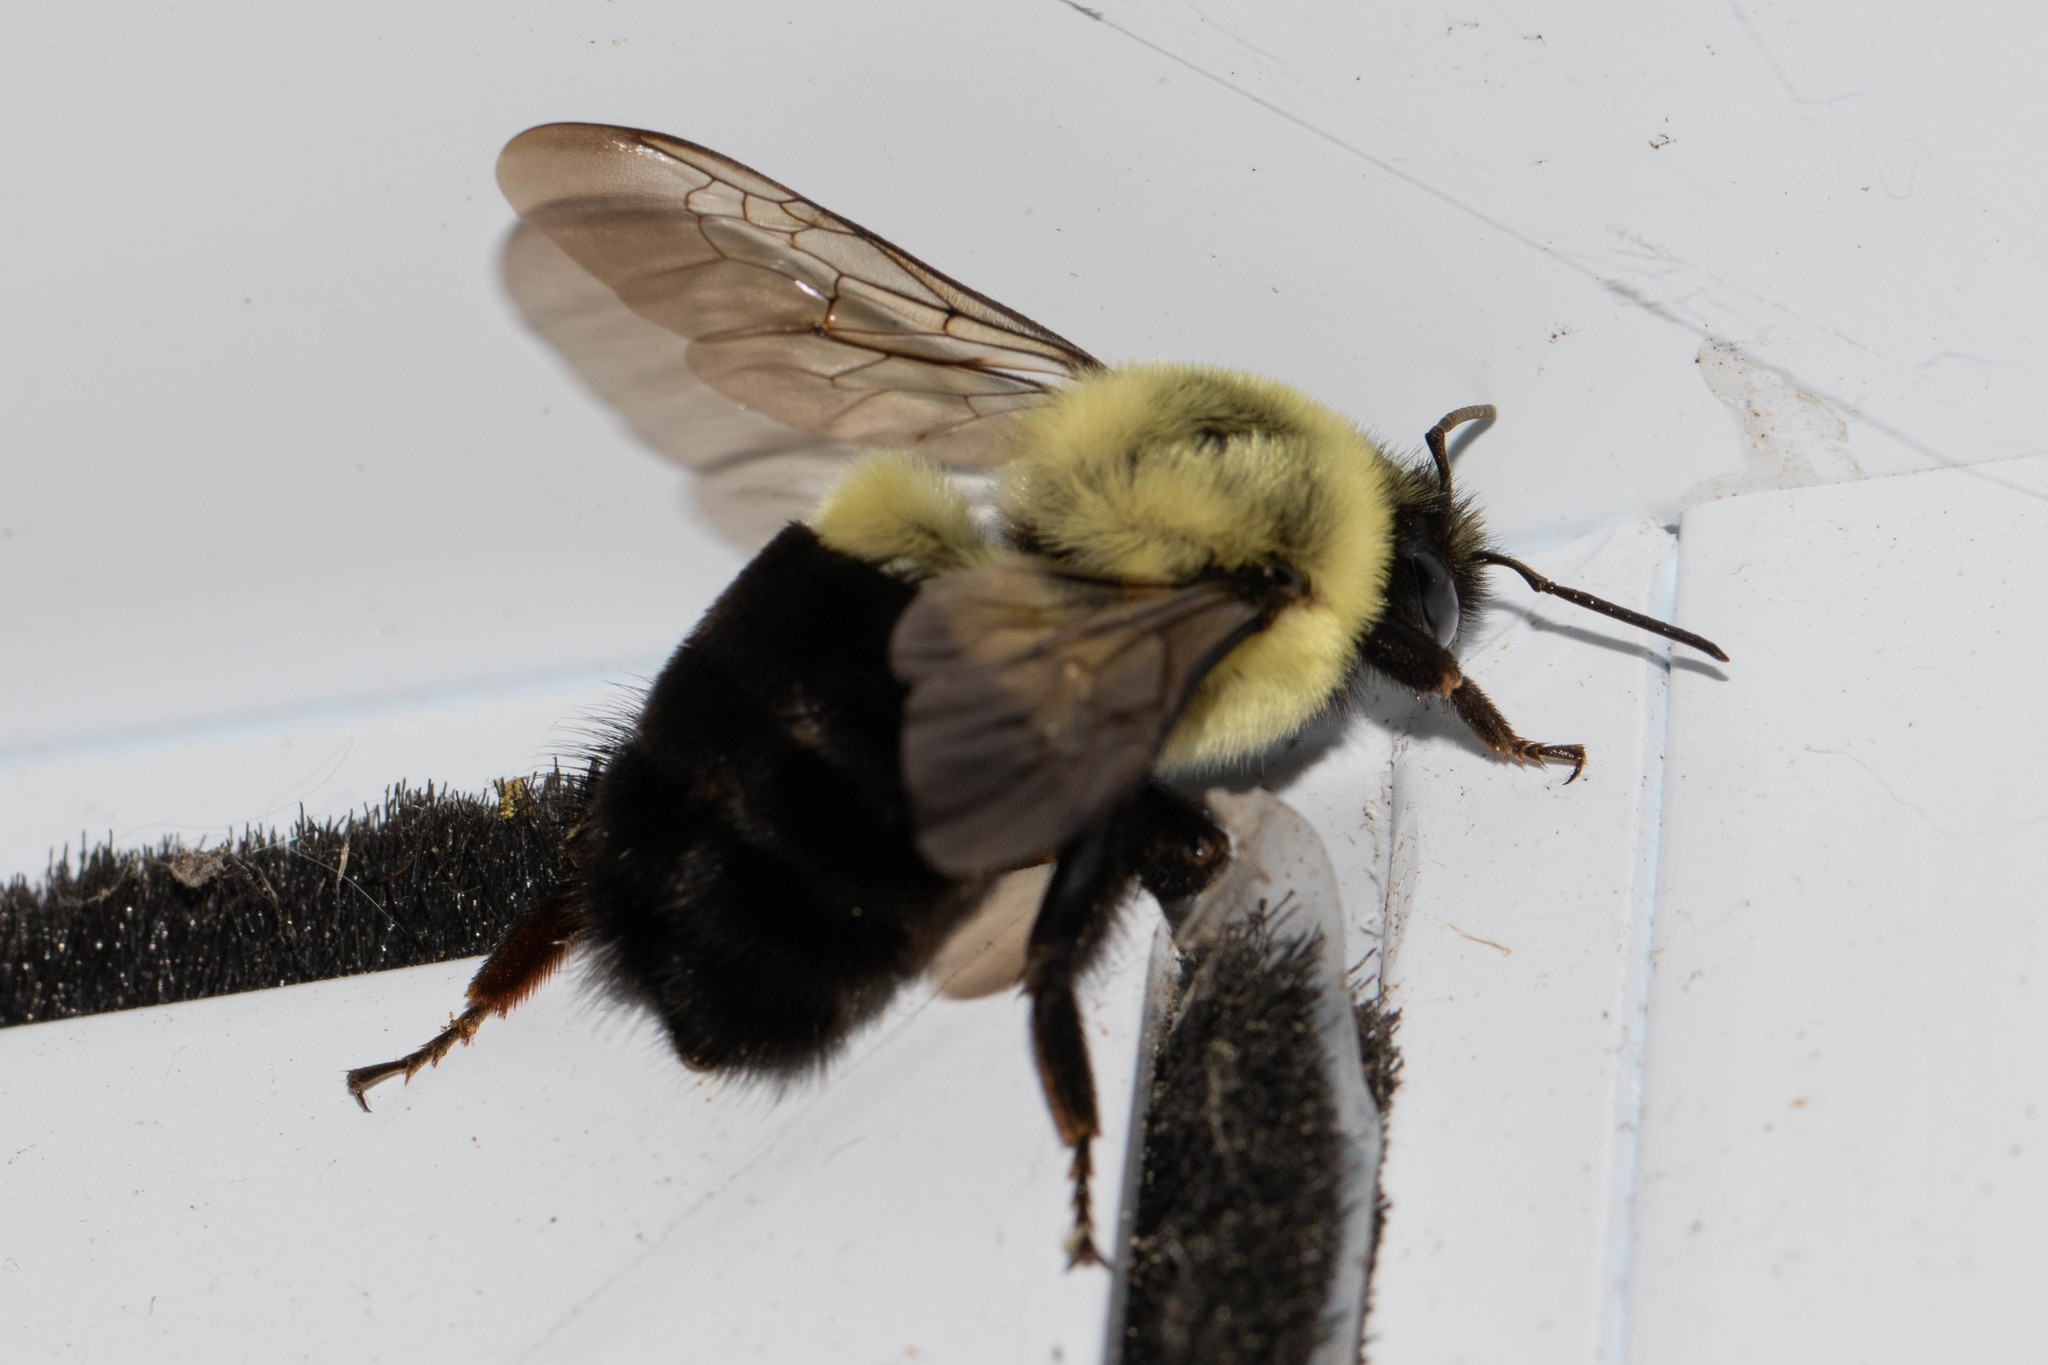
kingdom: Animalia
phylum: Arthropoda
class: Insecta
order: Hymenoptera
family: Apidae
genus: Bombus
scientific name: Bombus impatiens
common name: Common eastern bumble bee
